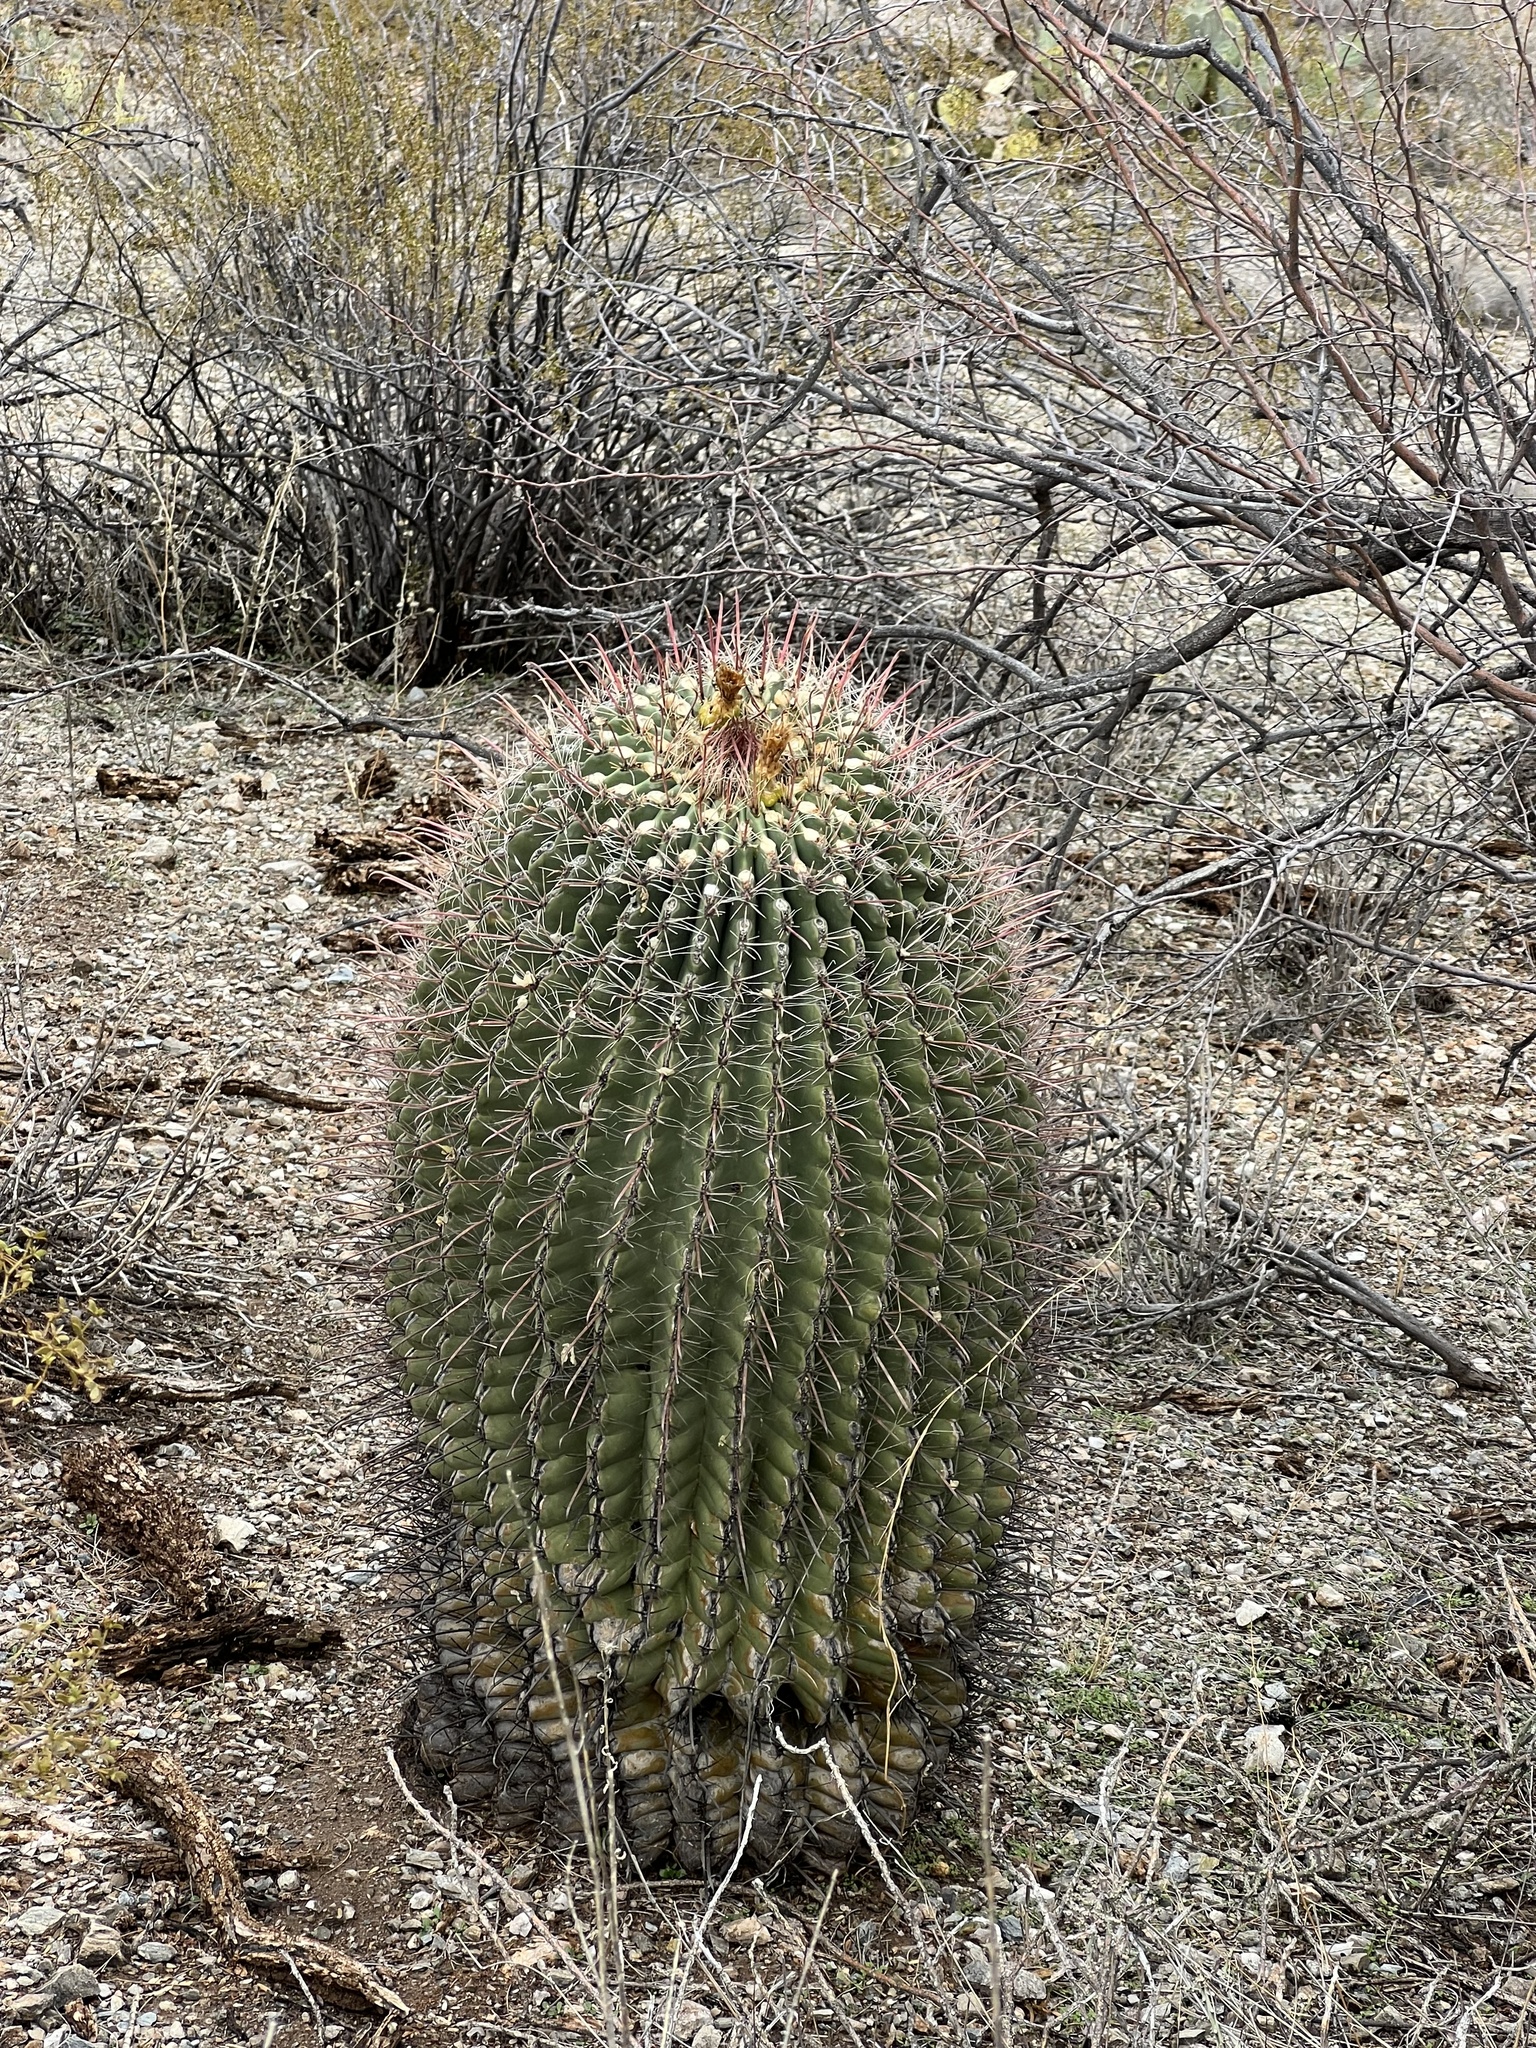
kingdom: Plantae
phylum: Tracheophyta
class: Magnoliopsida
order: Caryophyllales
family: Cactaceae
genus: Ferocactus
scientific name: Ferocactus wislizeni
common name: Candy barrel cactus
